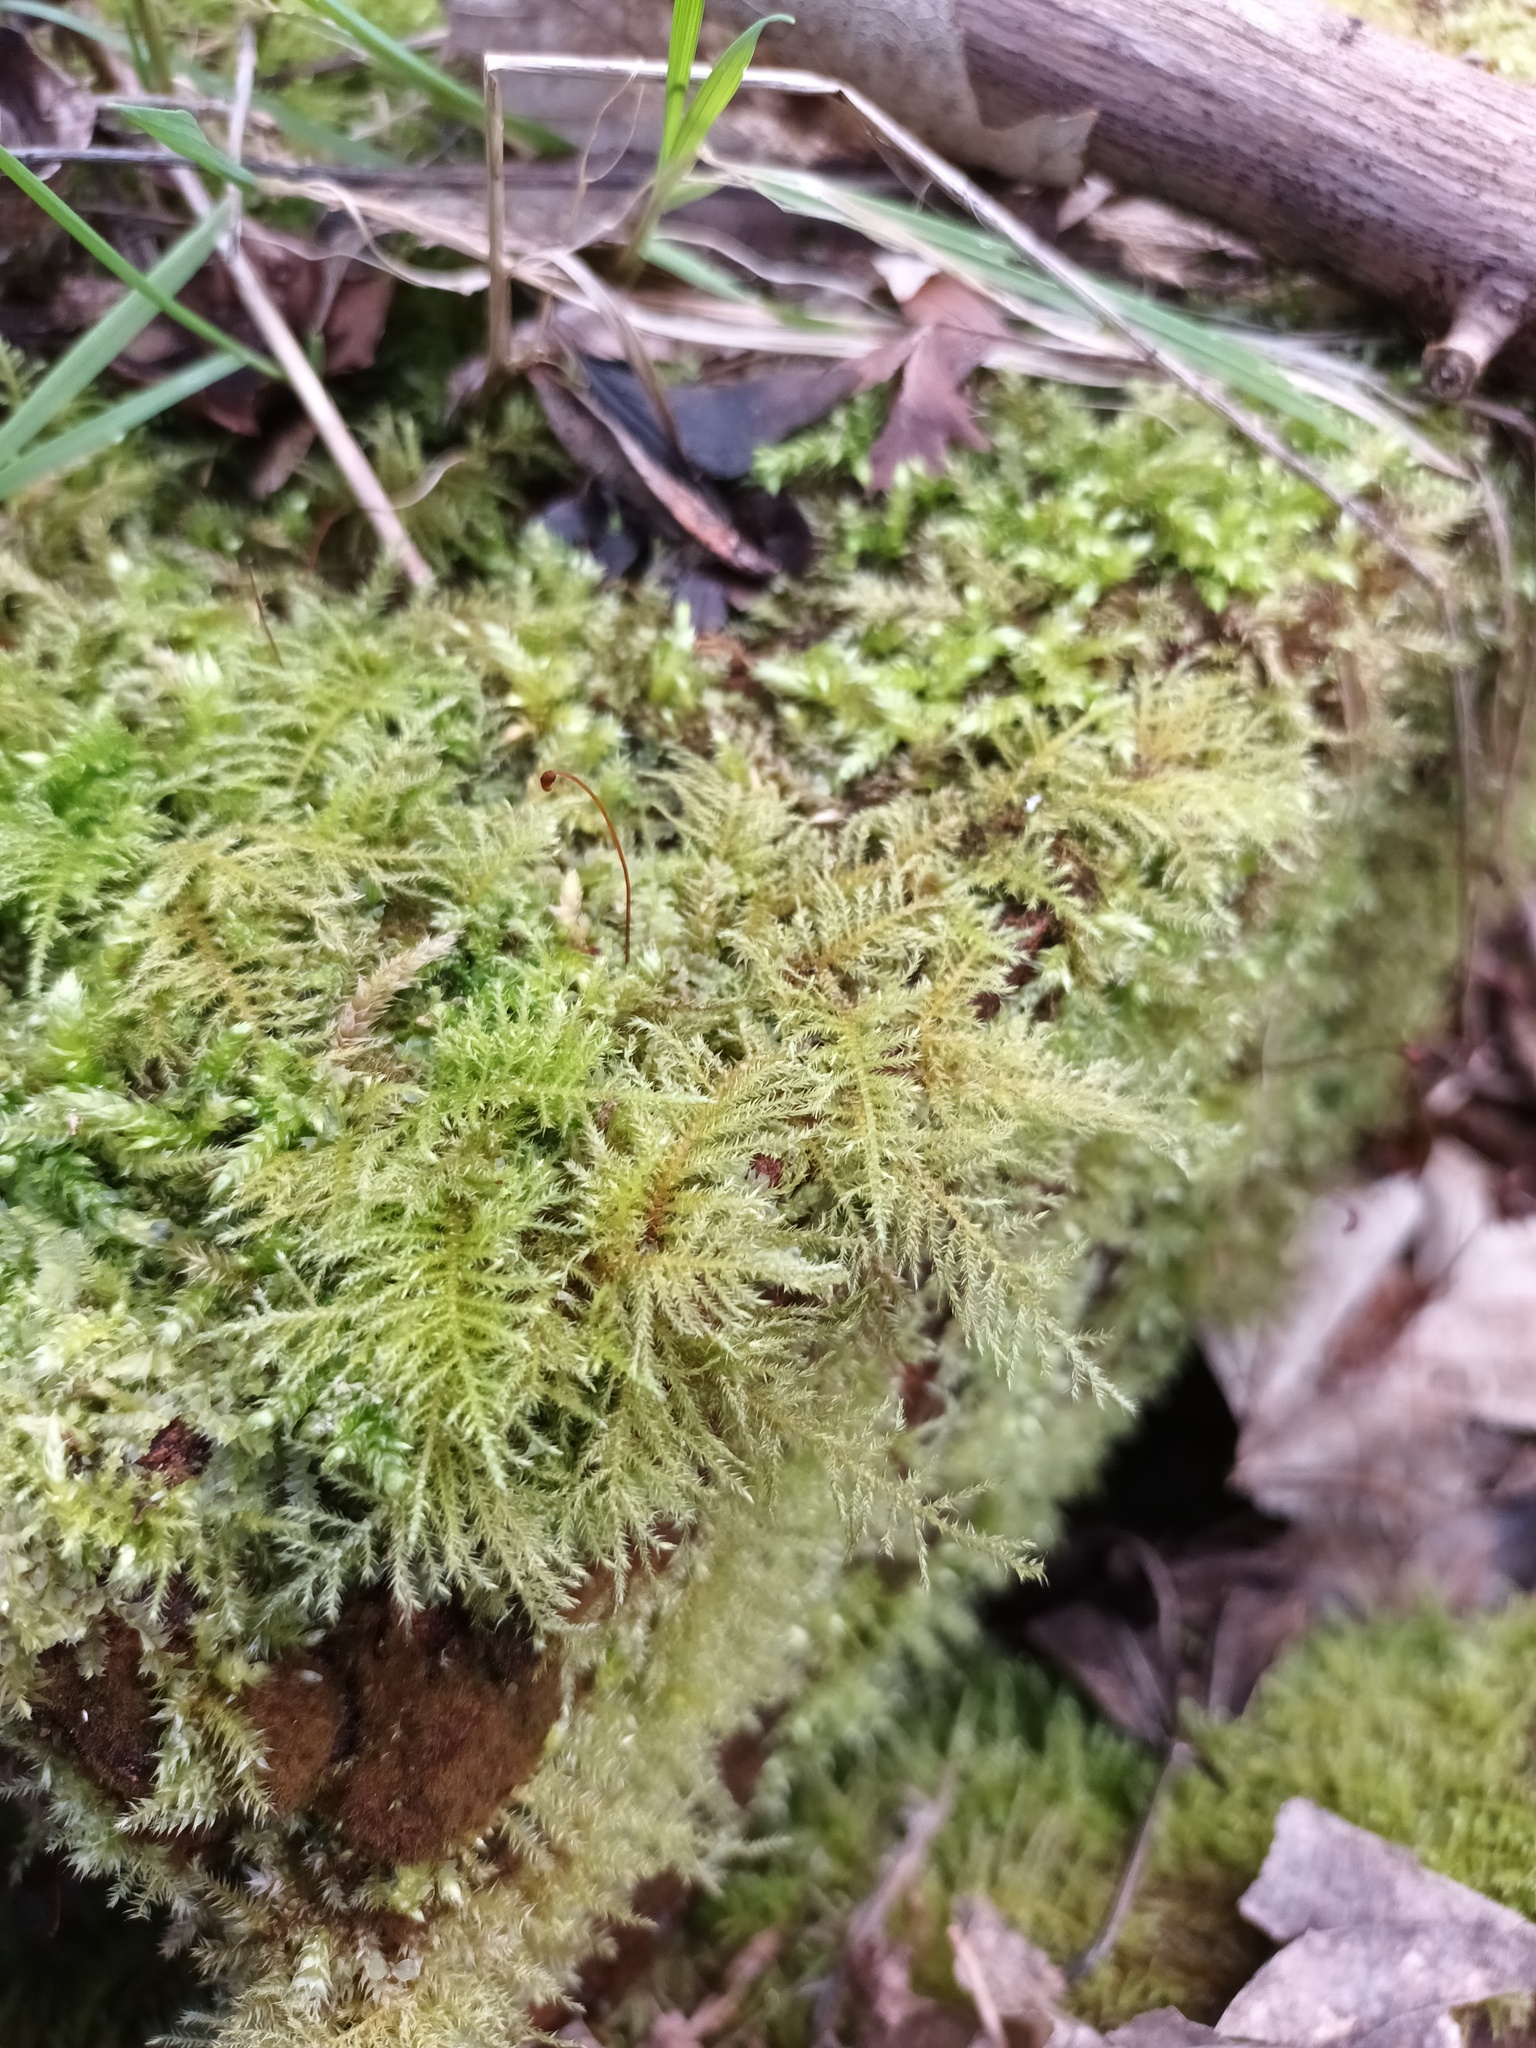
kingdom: Plantae
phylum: Bryophyta
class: Bryopsida
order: Hypnales
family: Brachytheciaceae
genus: Kindbergia
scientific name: Kindbergia praelonga
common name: Slender beaked moss
